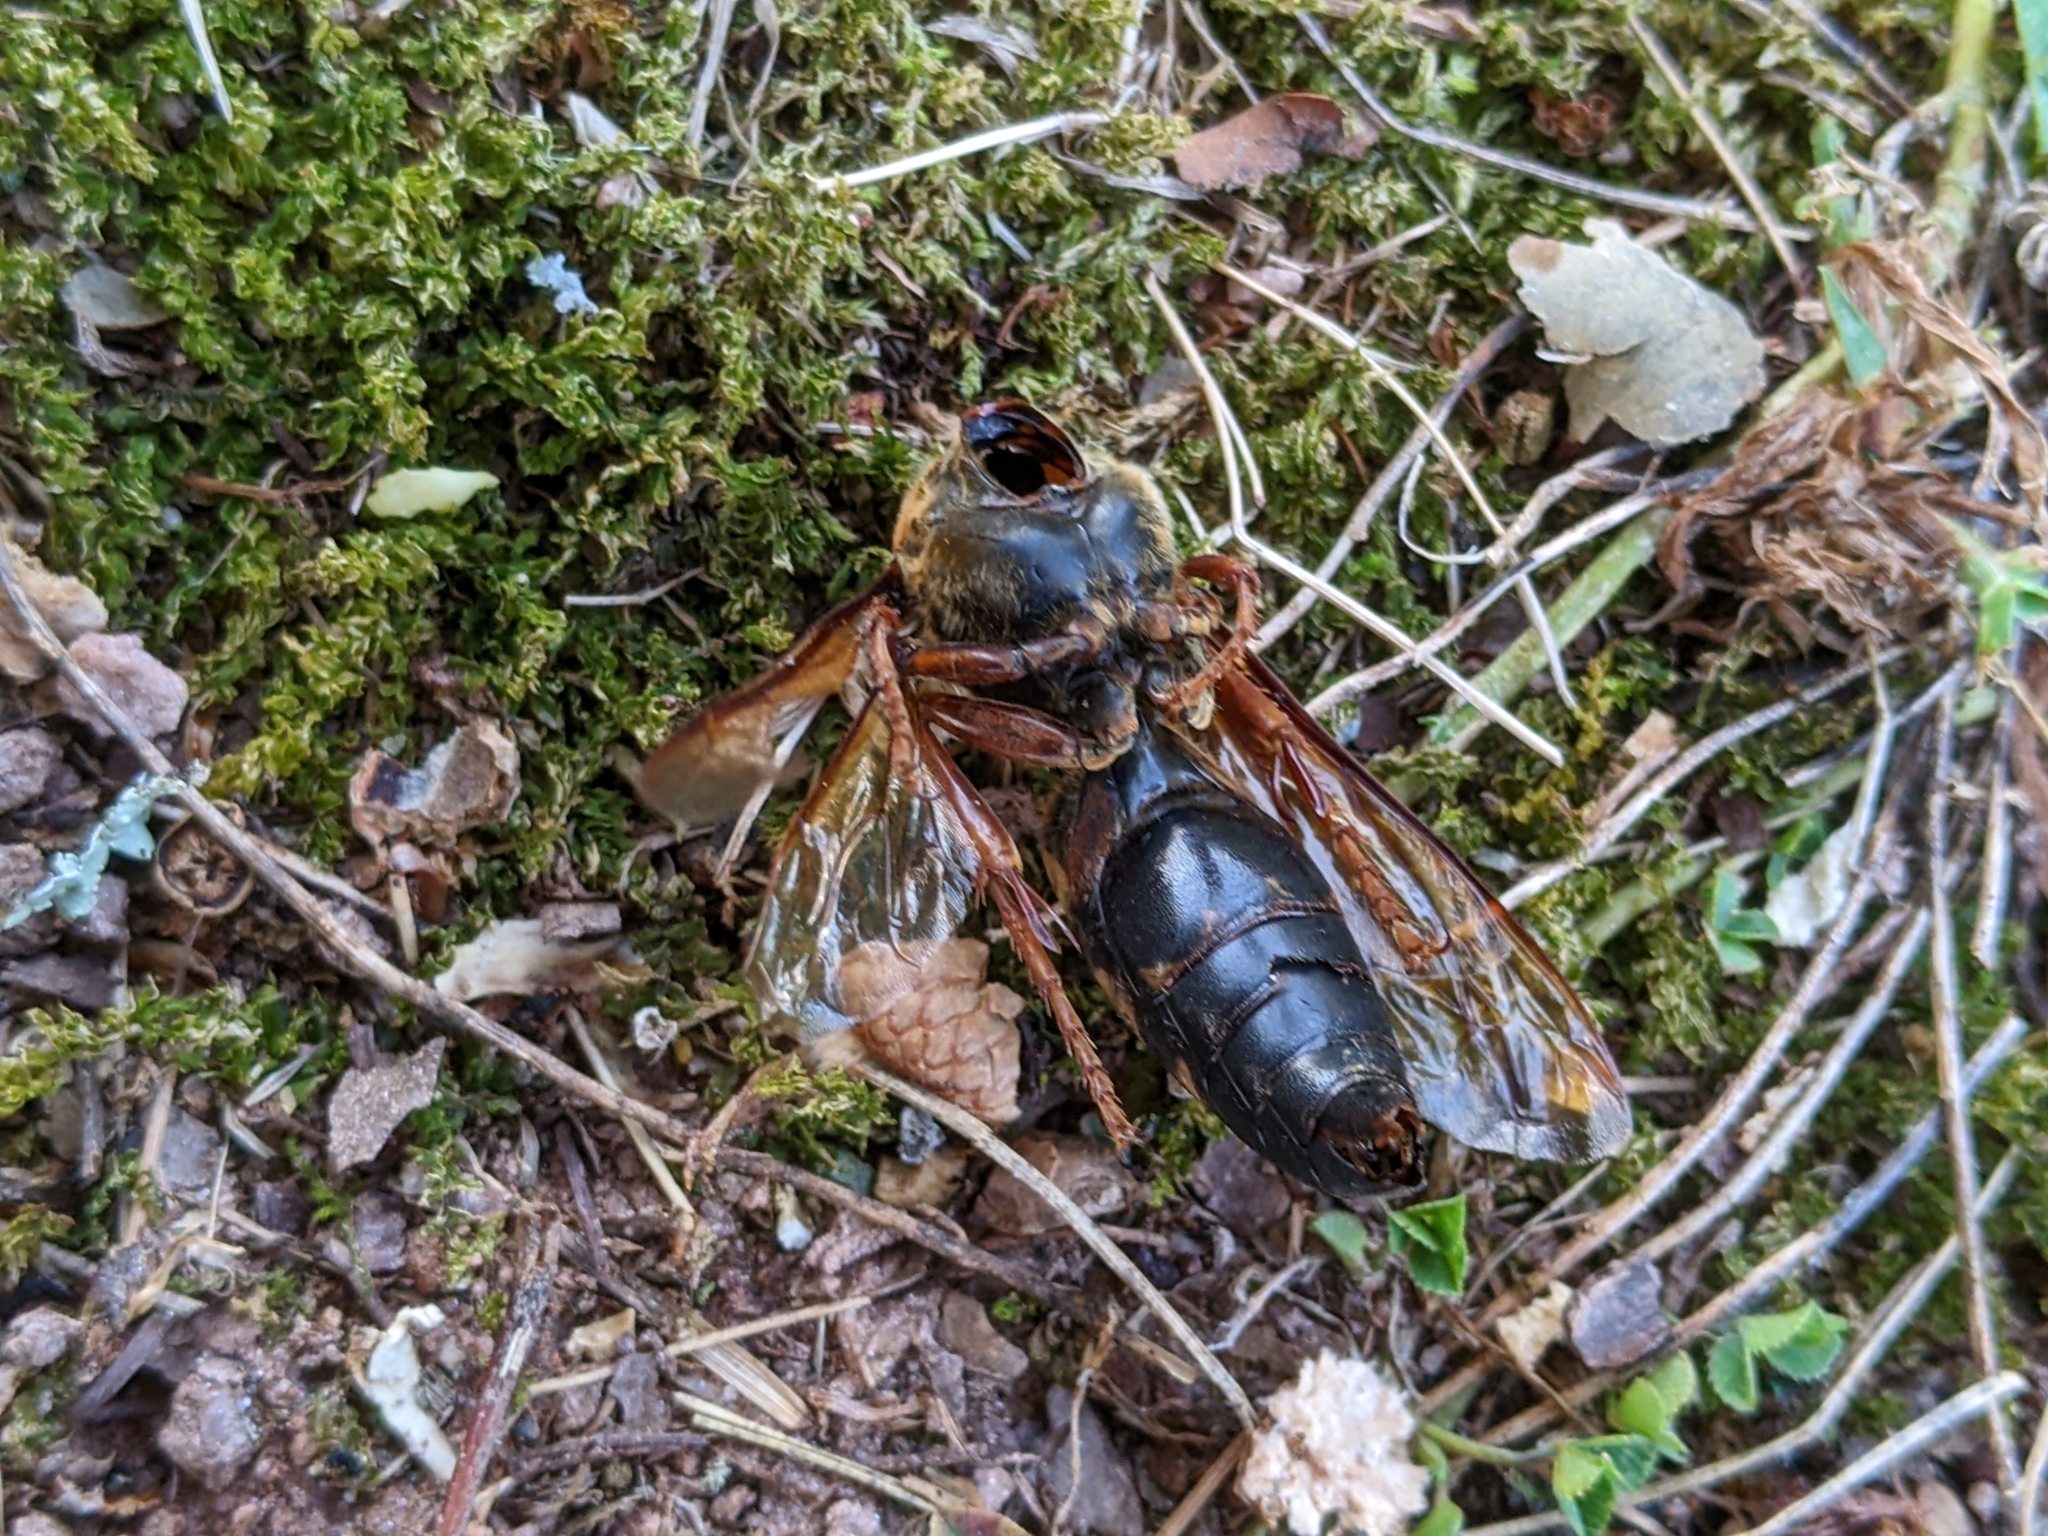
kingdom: Animalia
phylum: Arthropoda
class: Insecta
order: Hymenoptera
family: Crabronidae
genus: Sphecius
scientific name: Sphecius speciosus
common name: Cicada killer
